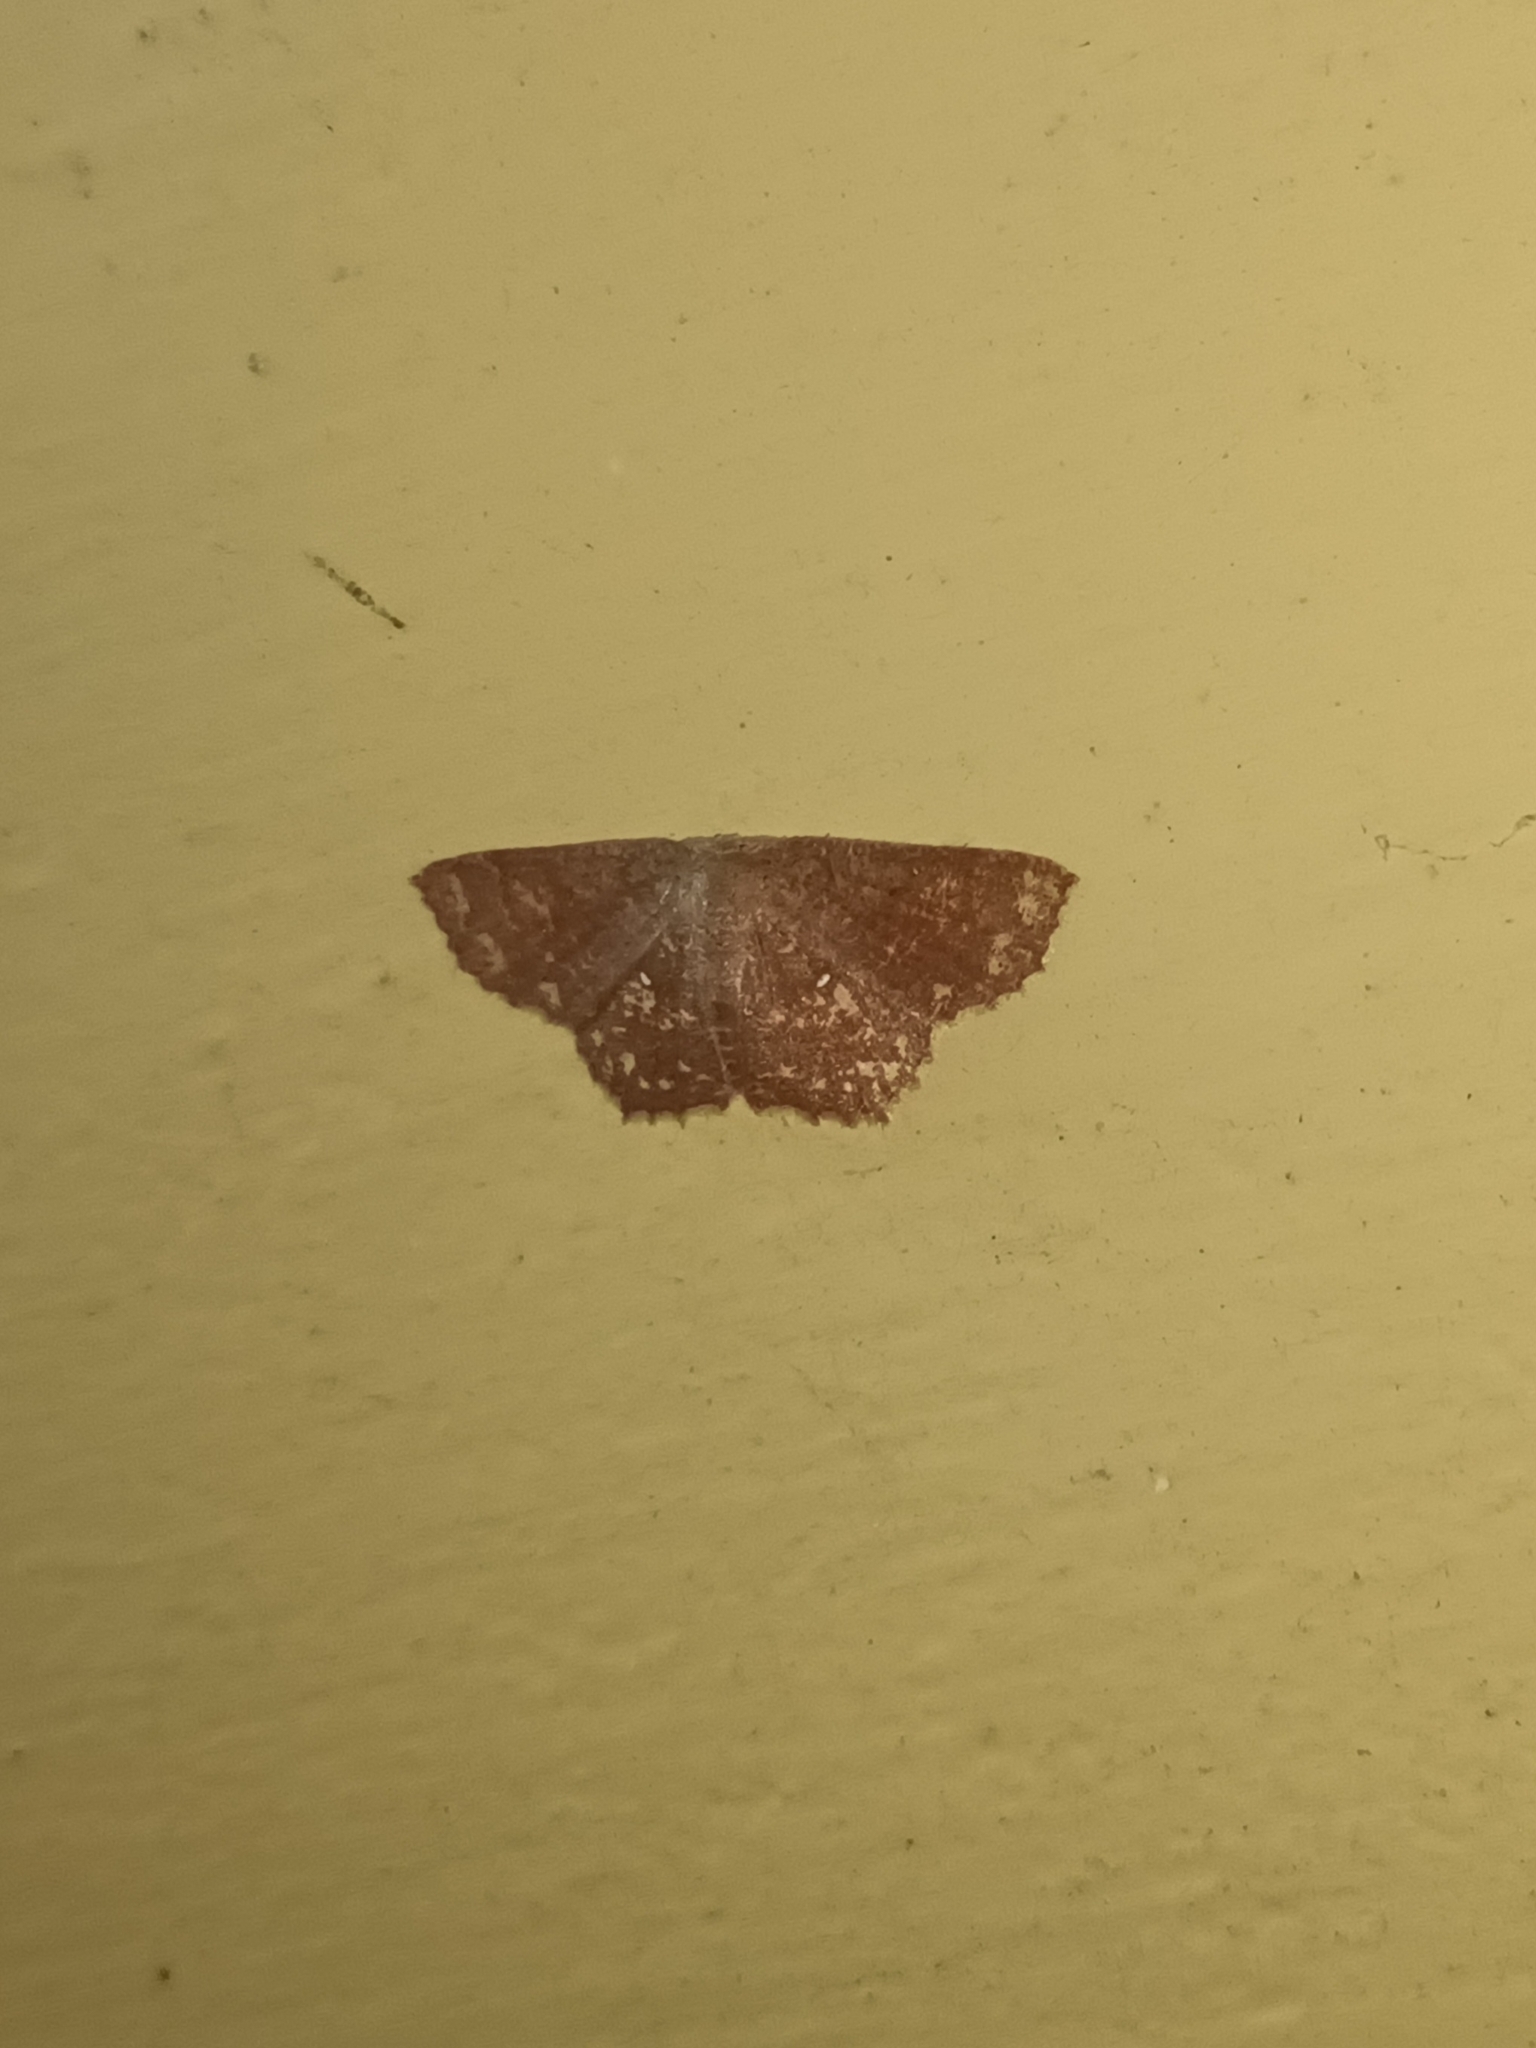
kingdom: Animalia
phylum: Arthropoda
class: Insecta
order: Lepidoptera
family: Geometridae
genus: Chrysocraspeda
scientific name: Chrysocraspeda volutaria
